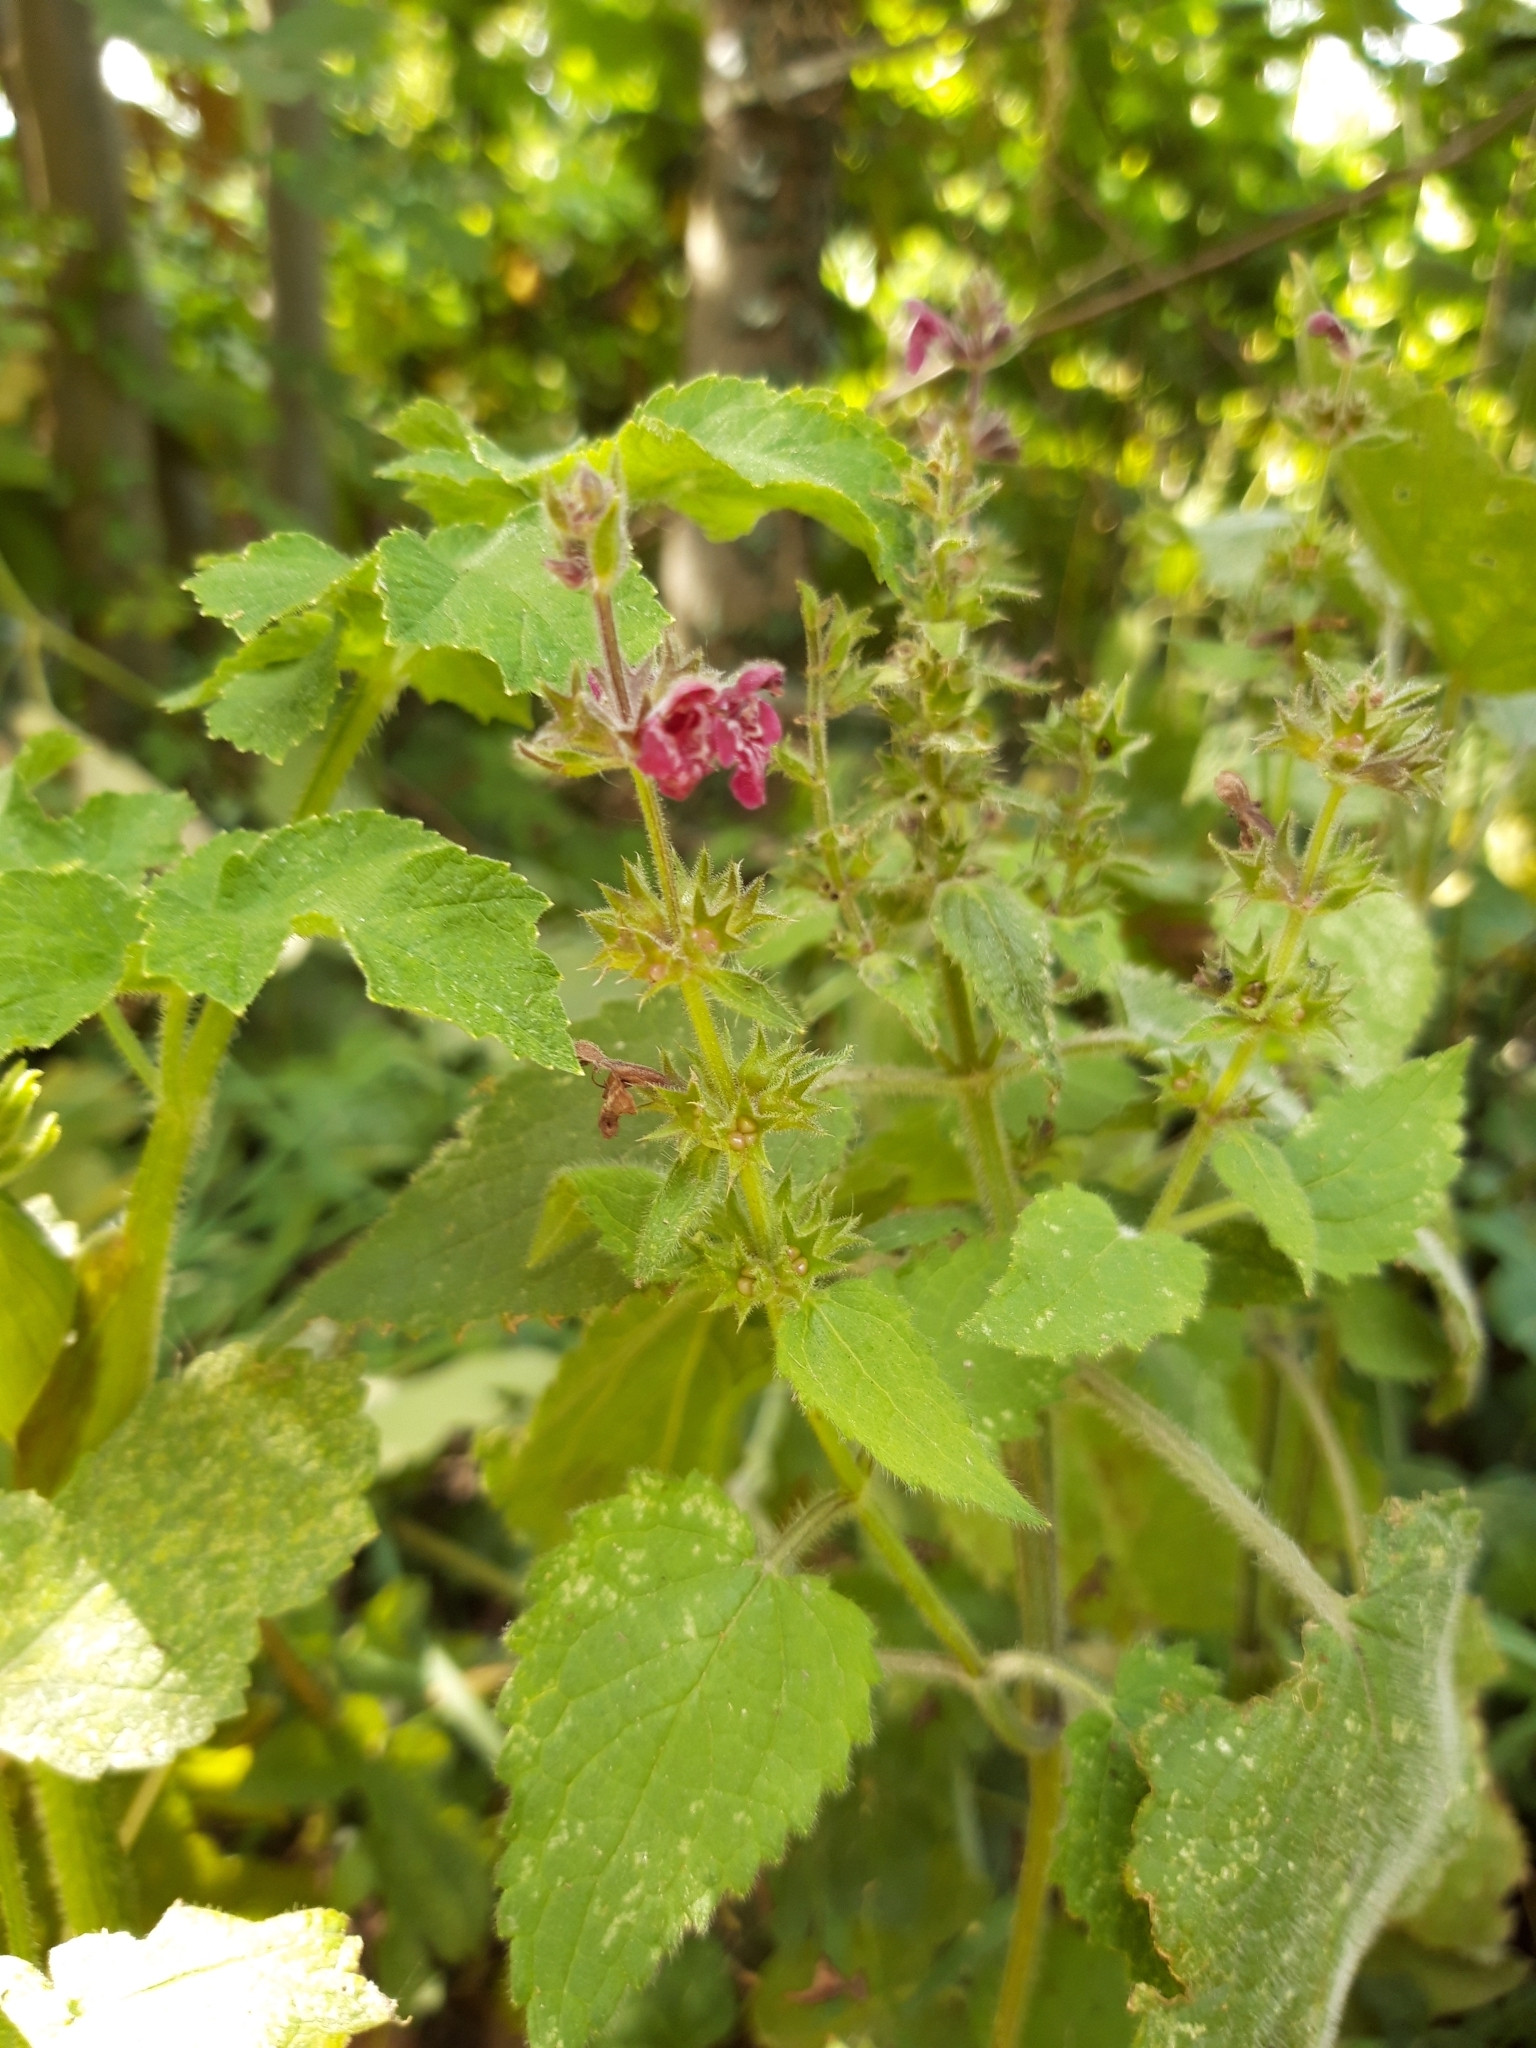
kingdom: Plantae
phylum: Tracheophyta
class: Magnoliopsida
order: Lamiales
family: Lamiaceae
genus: Stachys
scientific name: Stachys sylvatica
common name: Hedge woundwort
